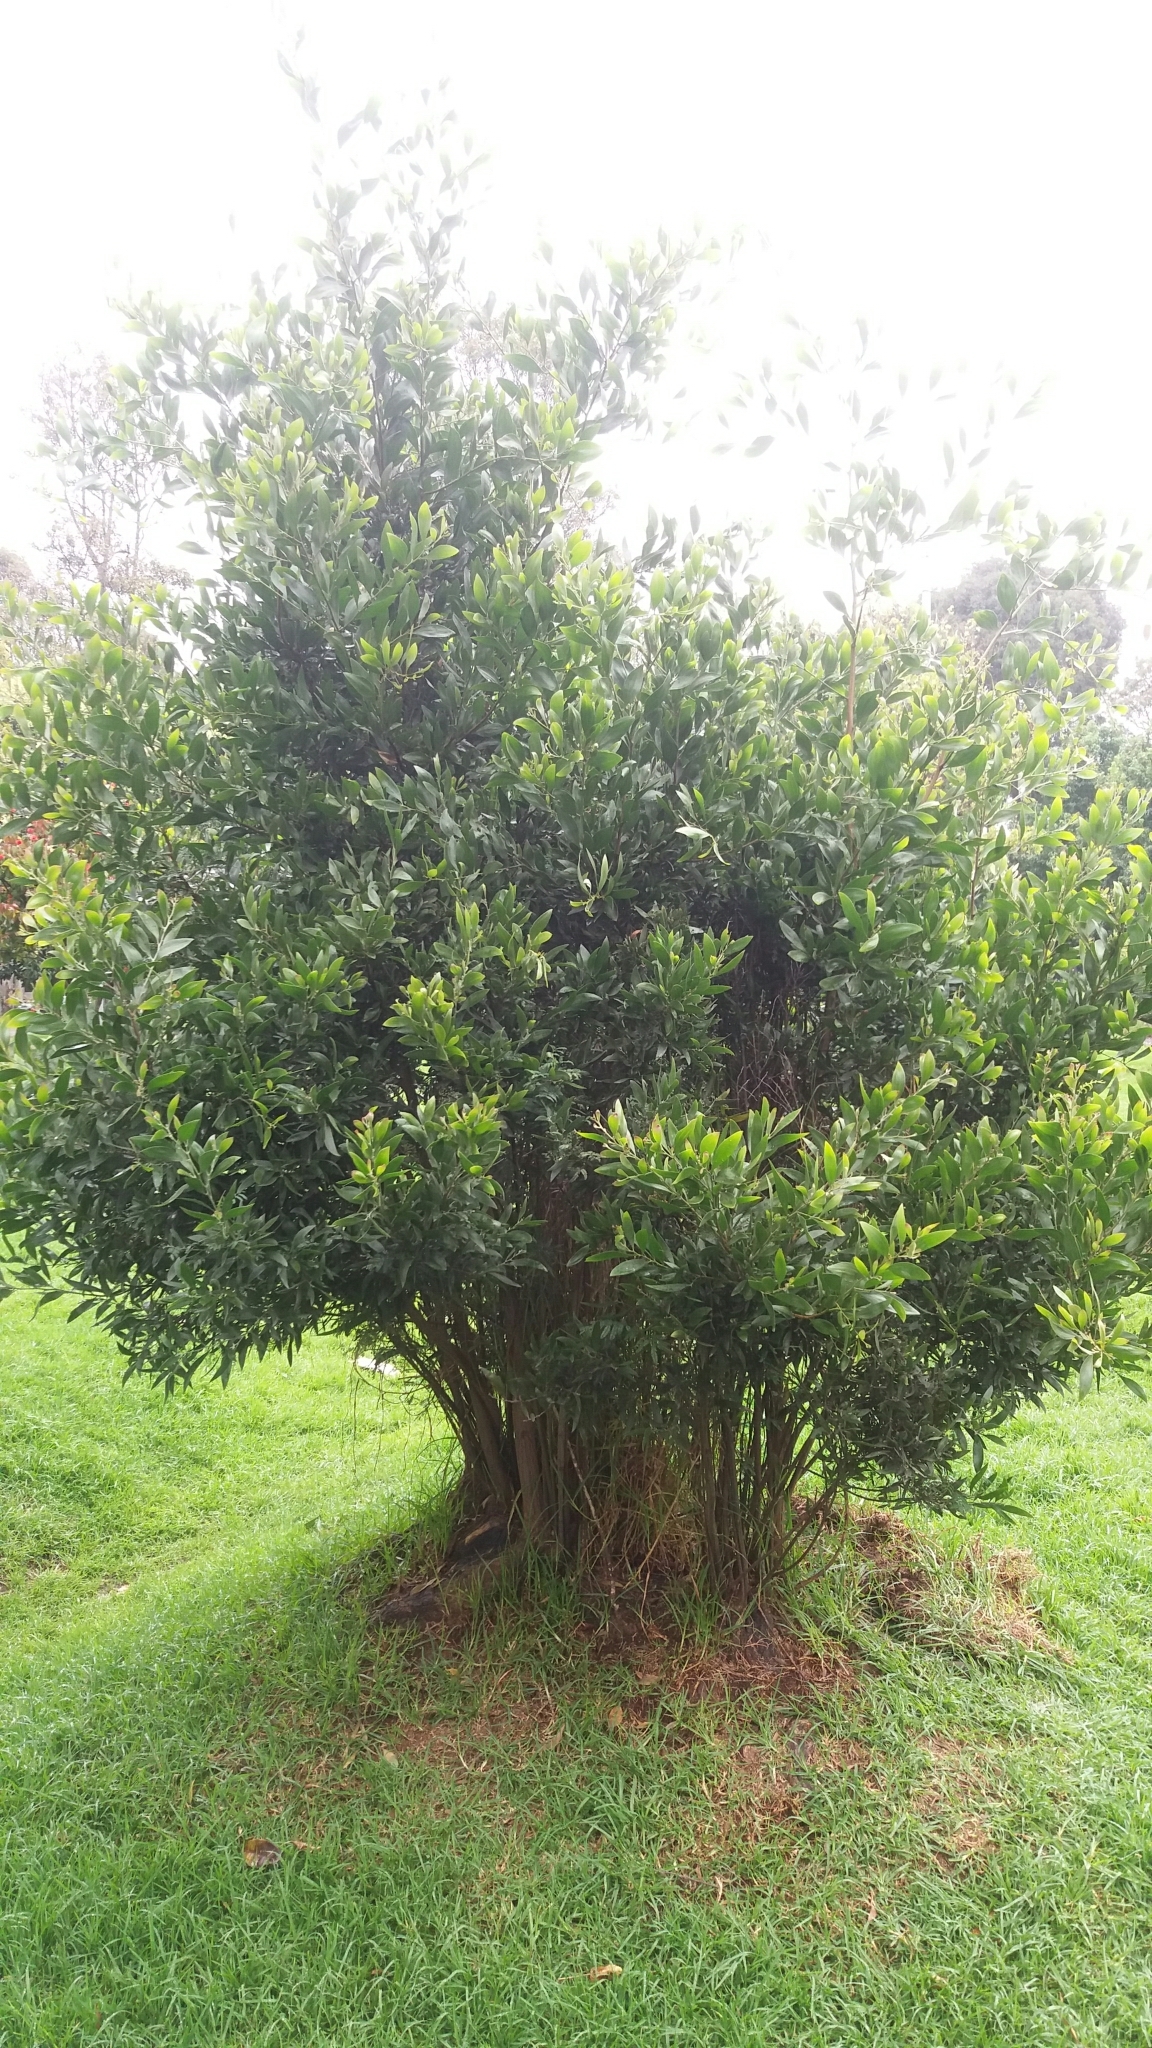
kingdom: Plantae
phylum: Tracheophyta
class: Magnoliopsida
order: Fabales
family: Fabaceae
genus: Acacia
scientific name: Acacia melanoxylon
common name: Blackwood
